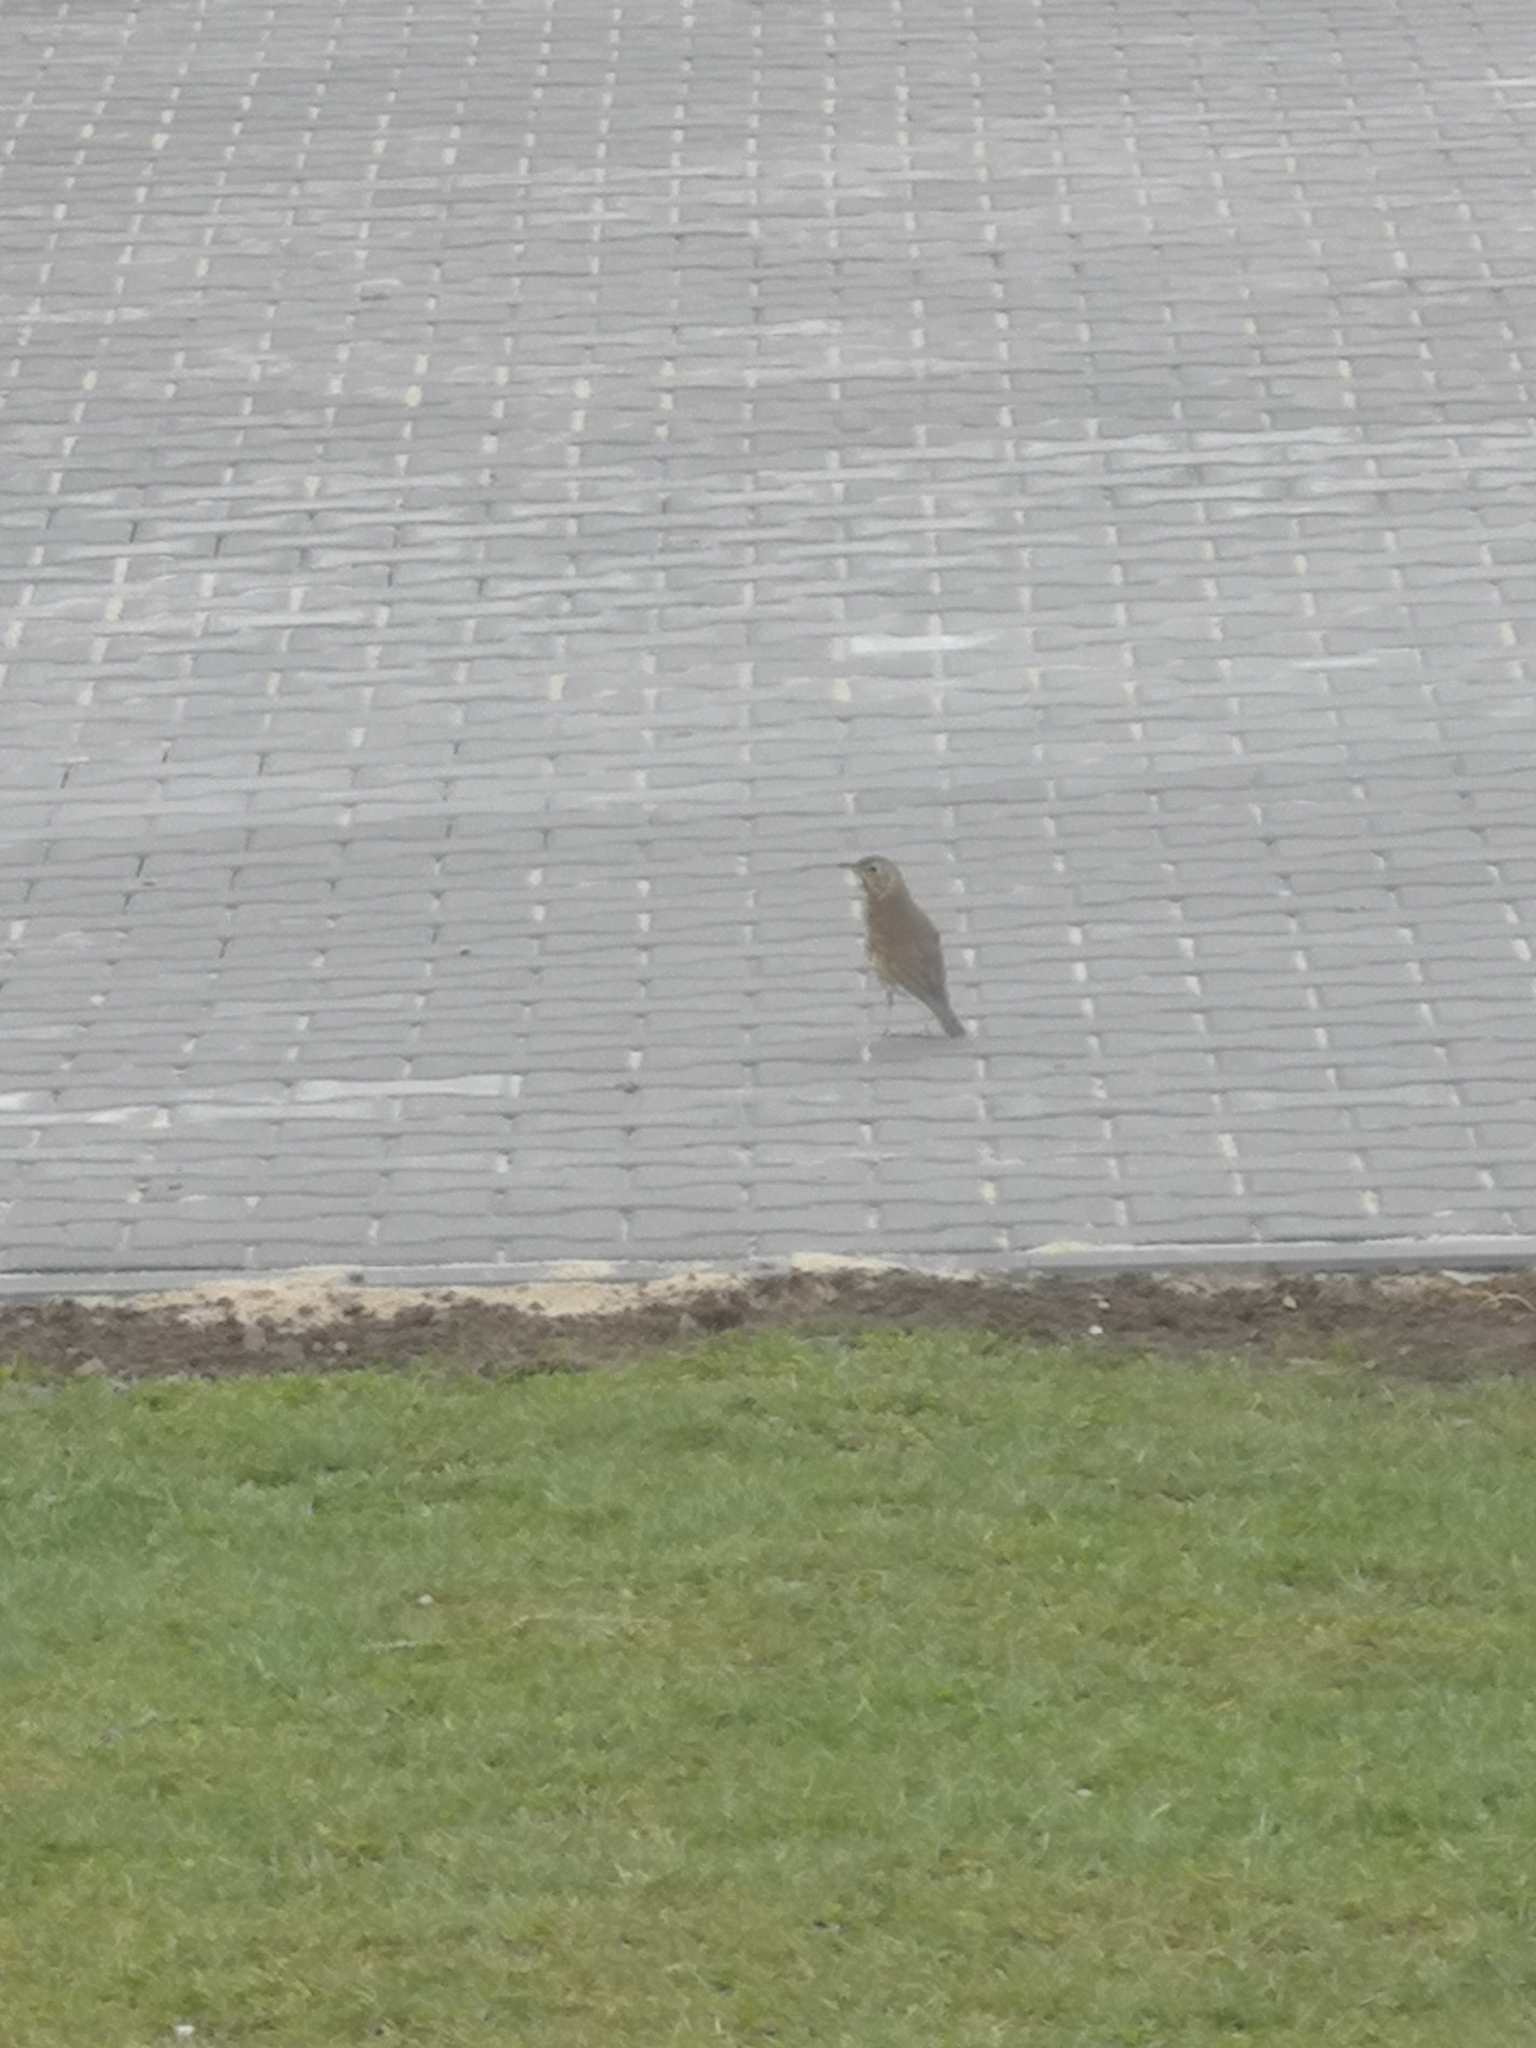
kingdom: Animalia
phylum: Chordata
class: Aves
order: Passeriformes
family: Turdidae
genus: Turdus
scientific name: Turdus philomelos
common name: Song thrush
